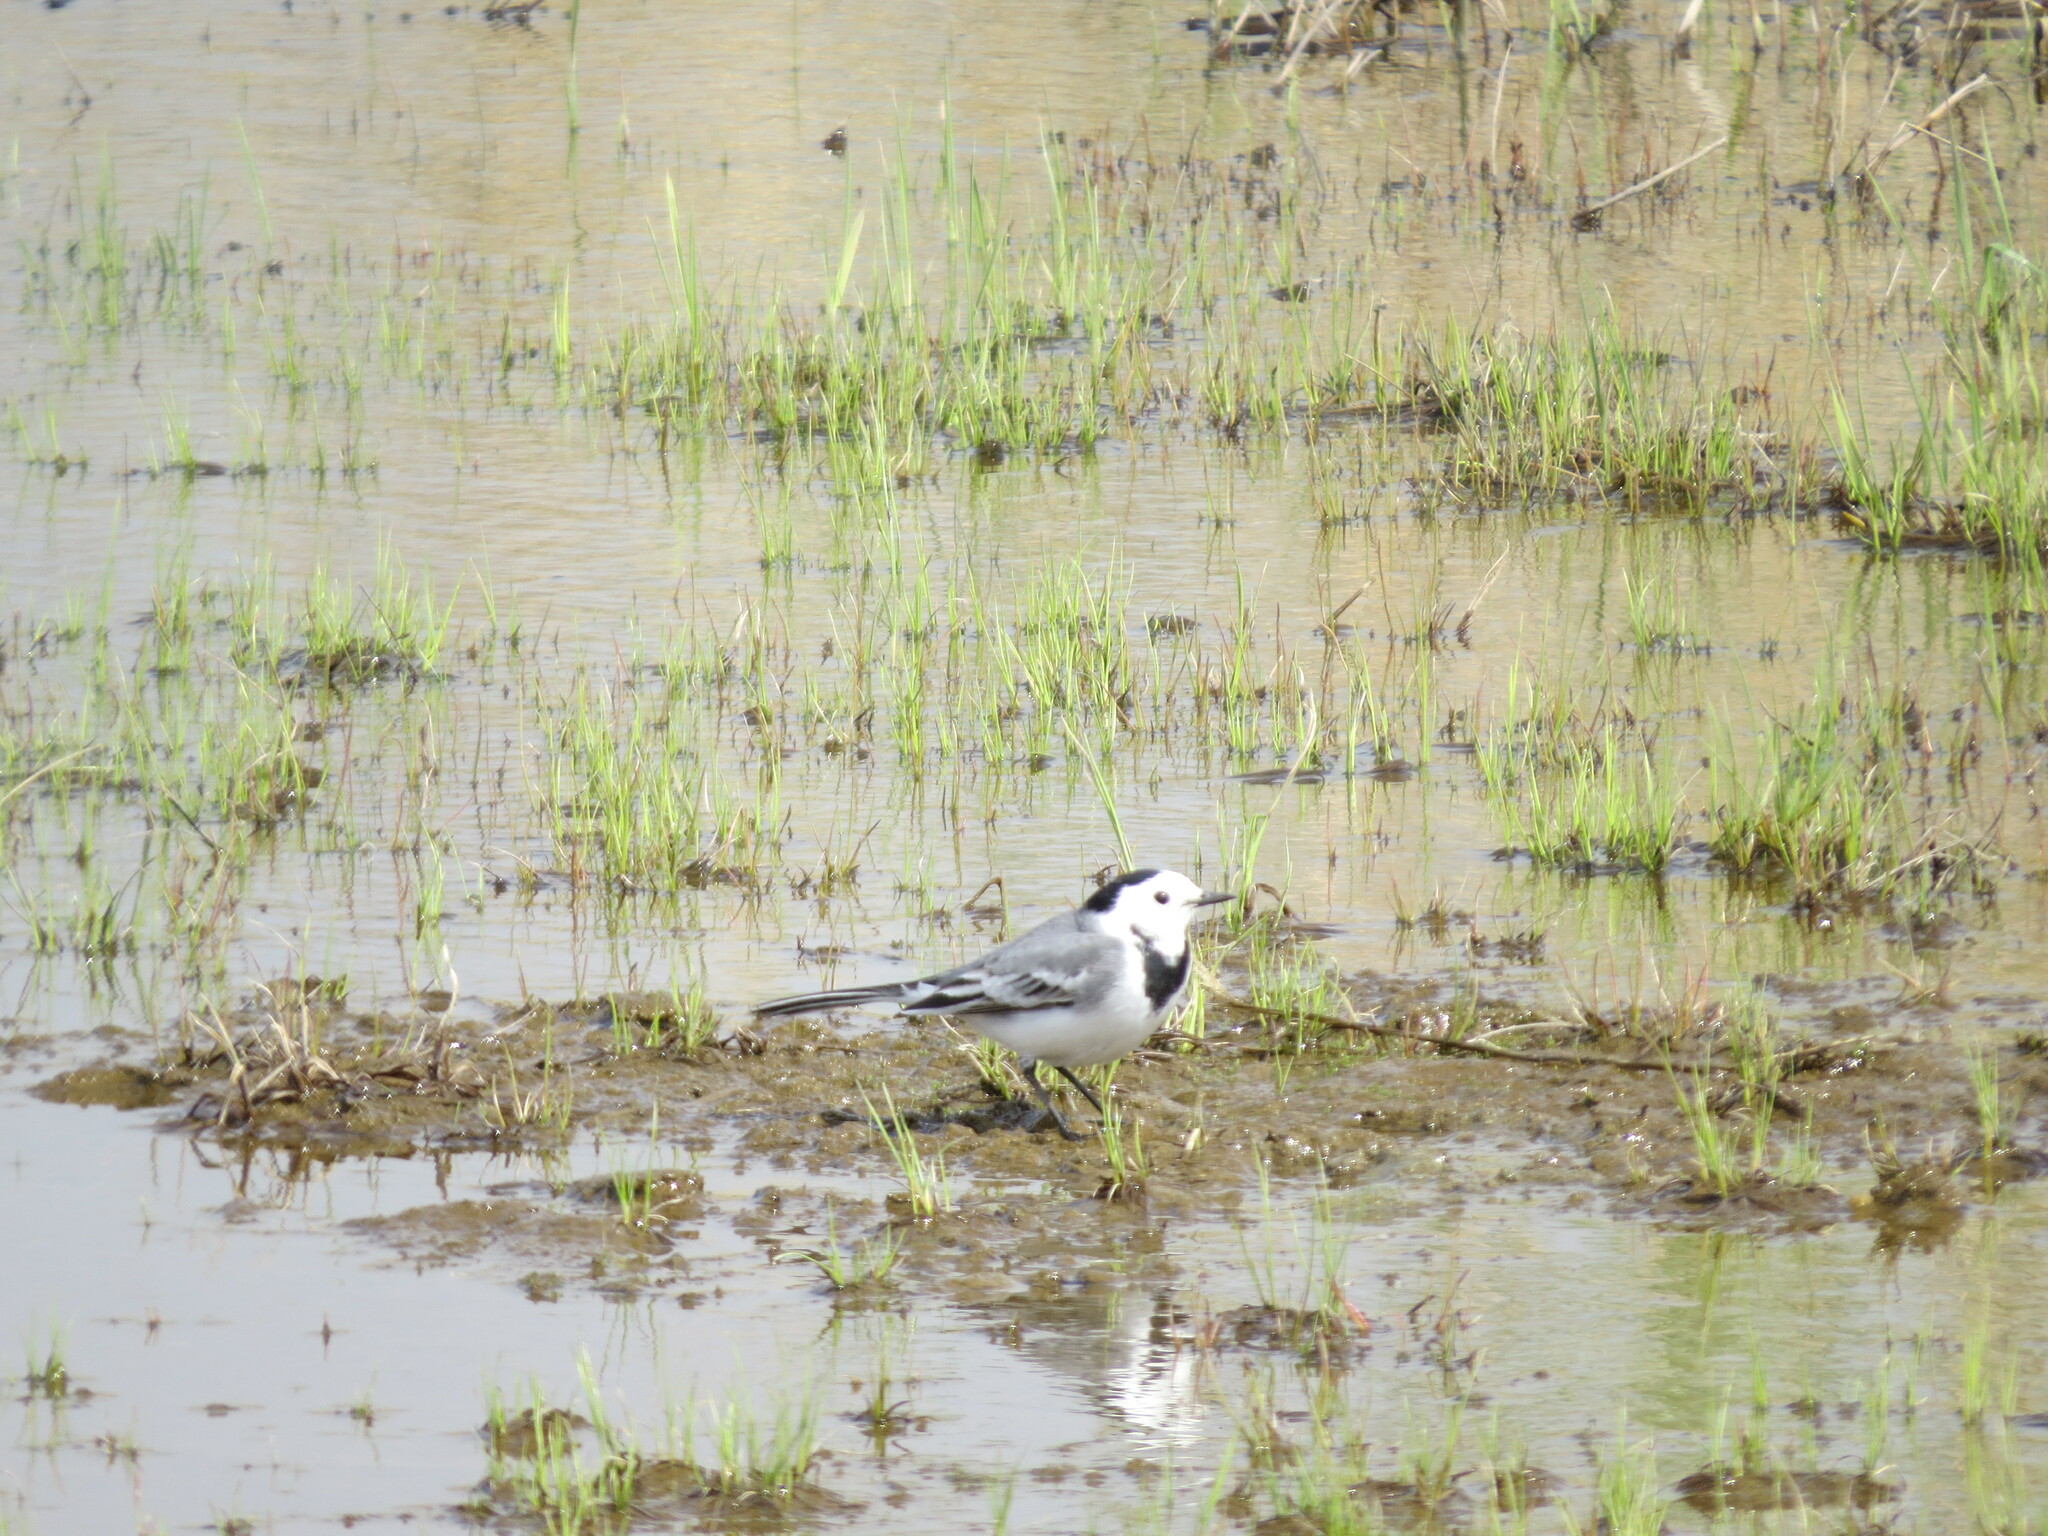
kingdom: Animalia
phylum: Chordata
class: Aves
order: Passeriformes
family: Motacillidae
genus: Motacilla
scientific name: Motacilla alba
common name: White wagtail
